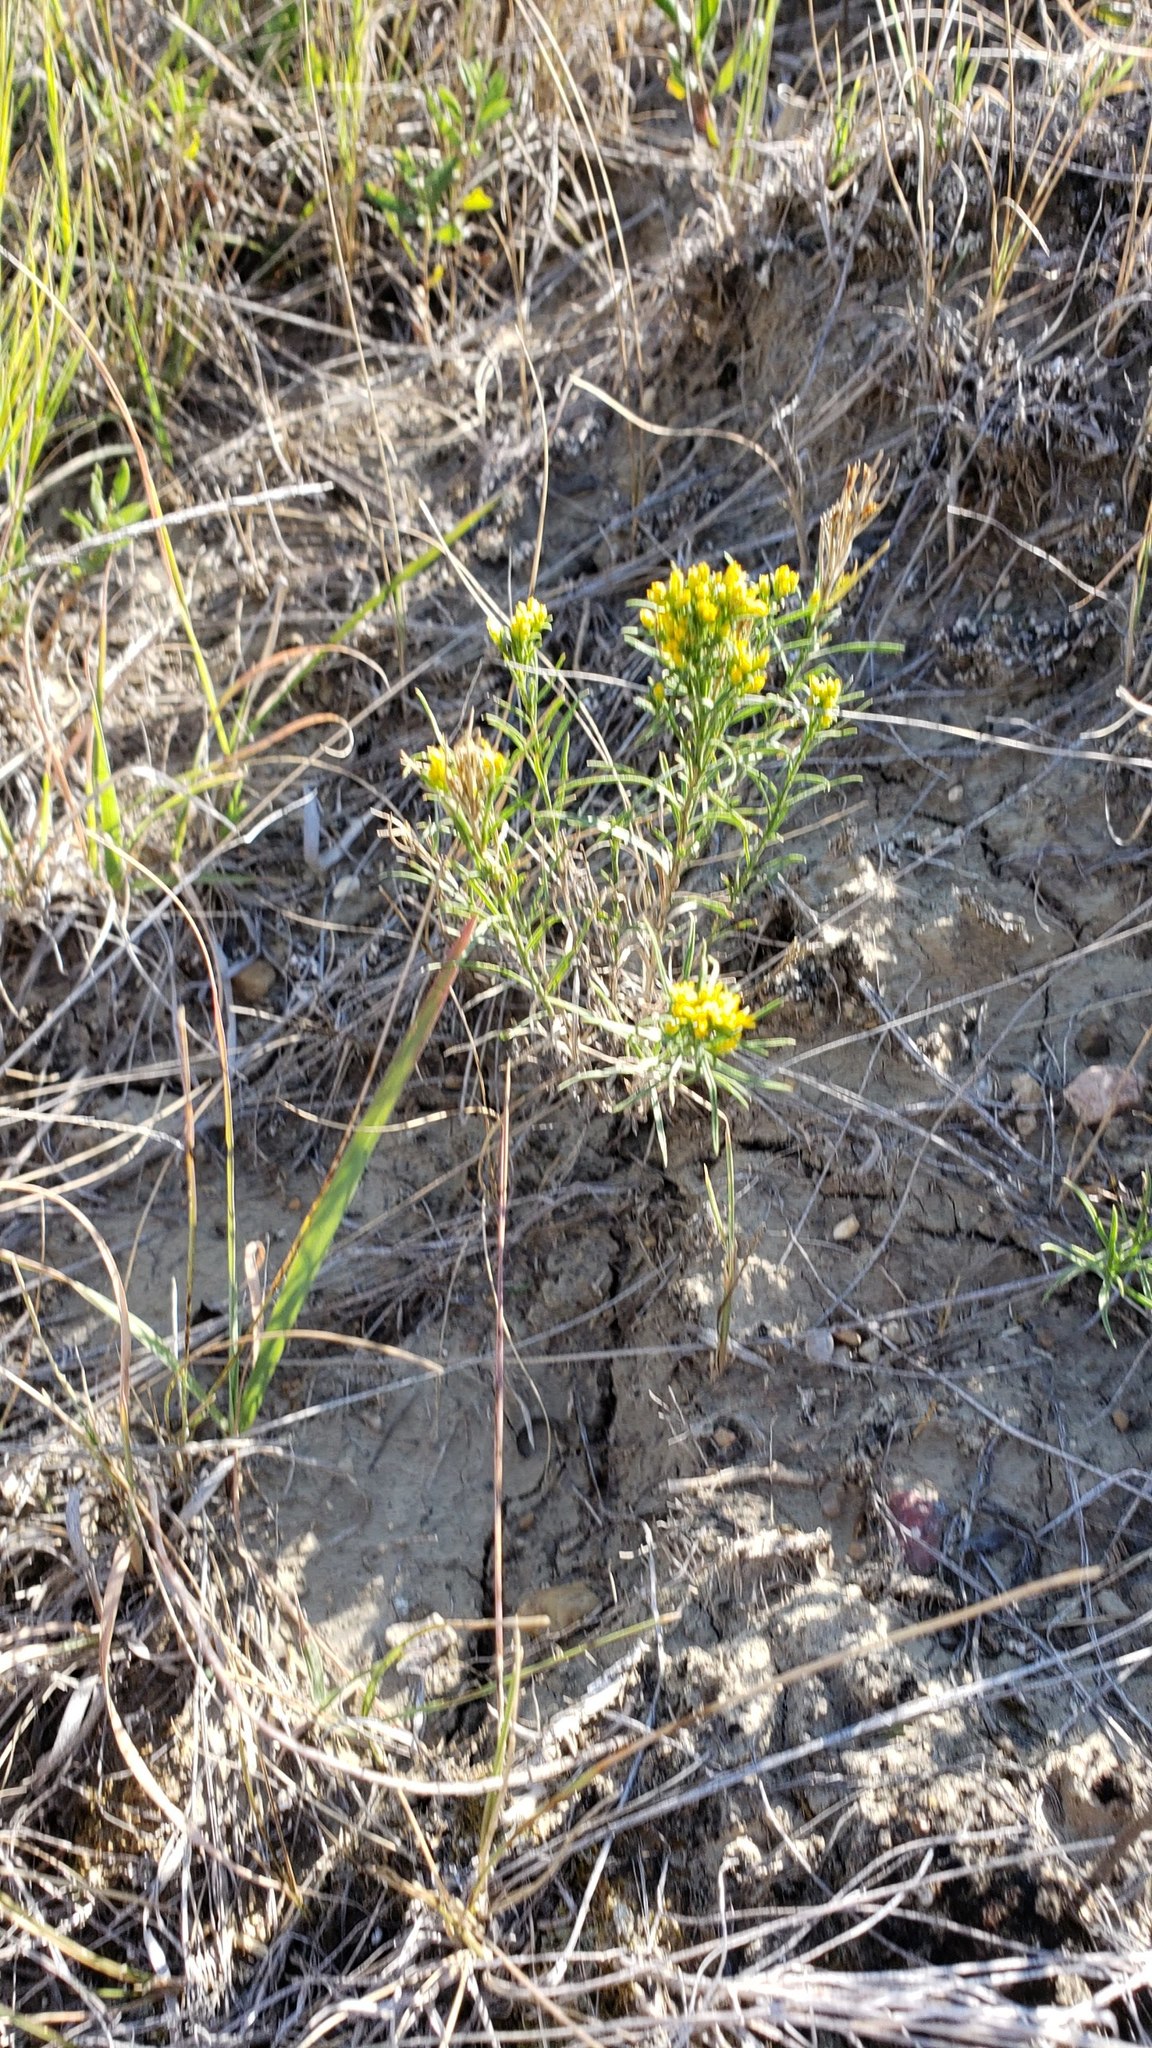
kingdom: Plantae
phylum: Tracheophyta
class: Magnoliopsida
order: Asterales
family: Asteraceae
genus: Gutierrezia
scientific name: Gutierrezia sarothrae
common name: Broom snakeweed
